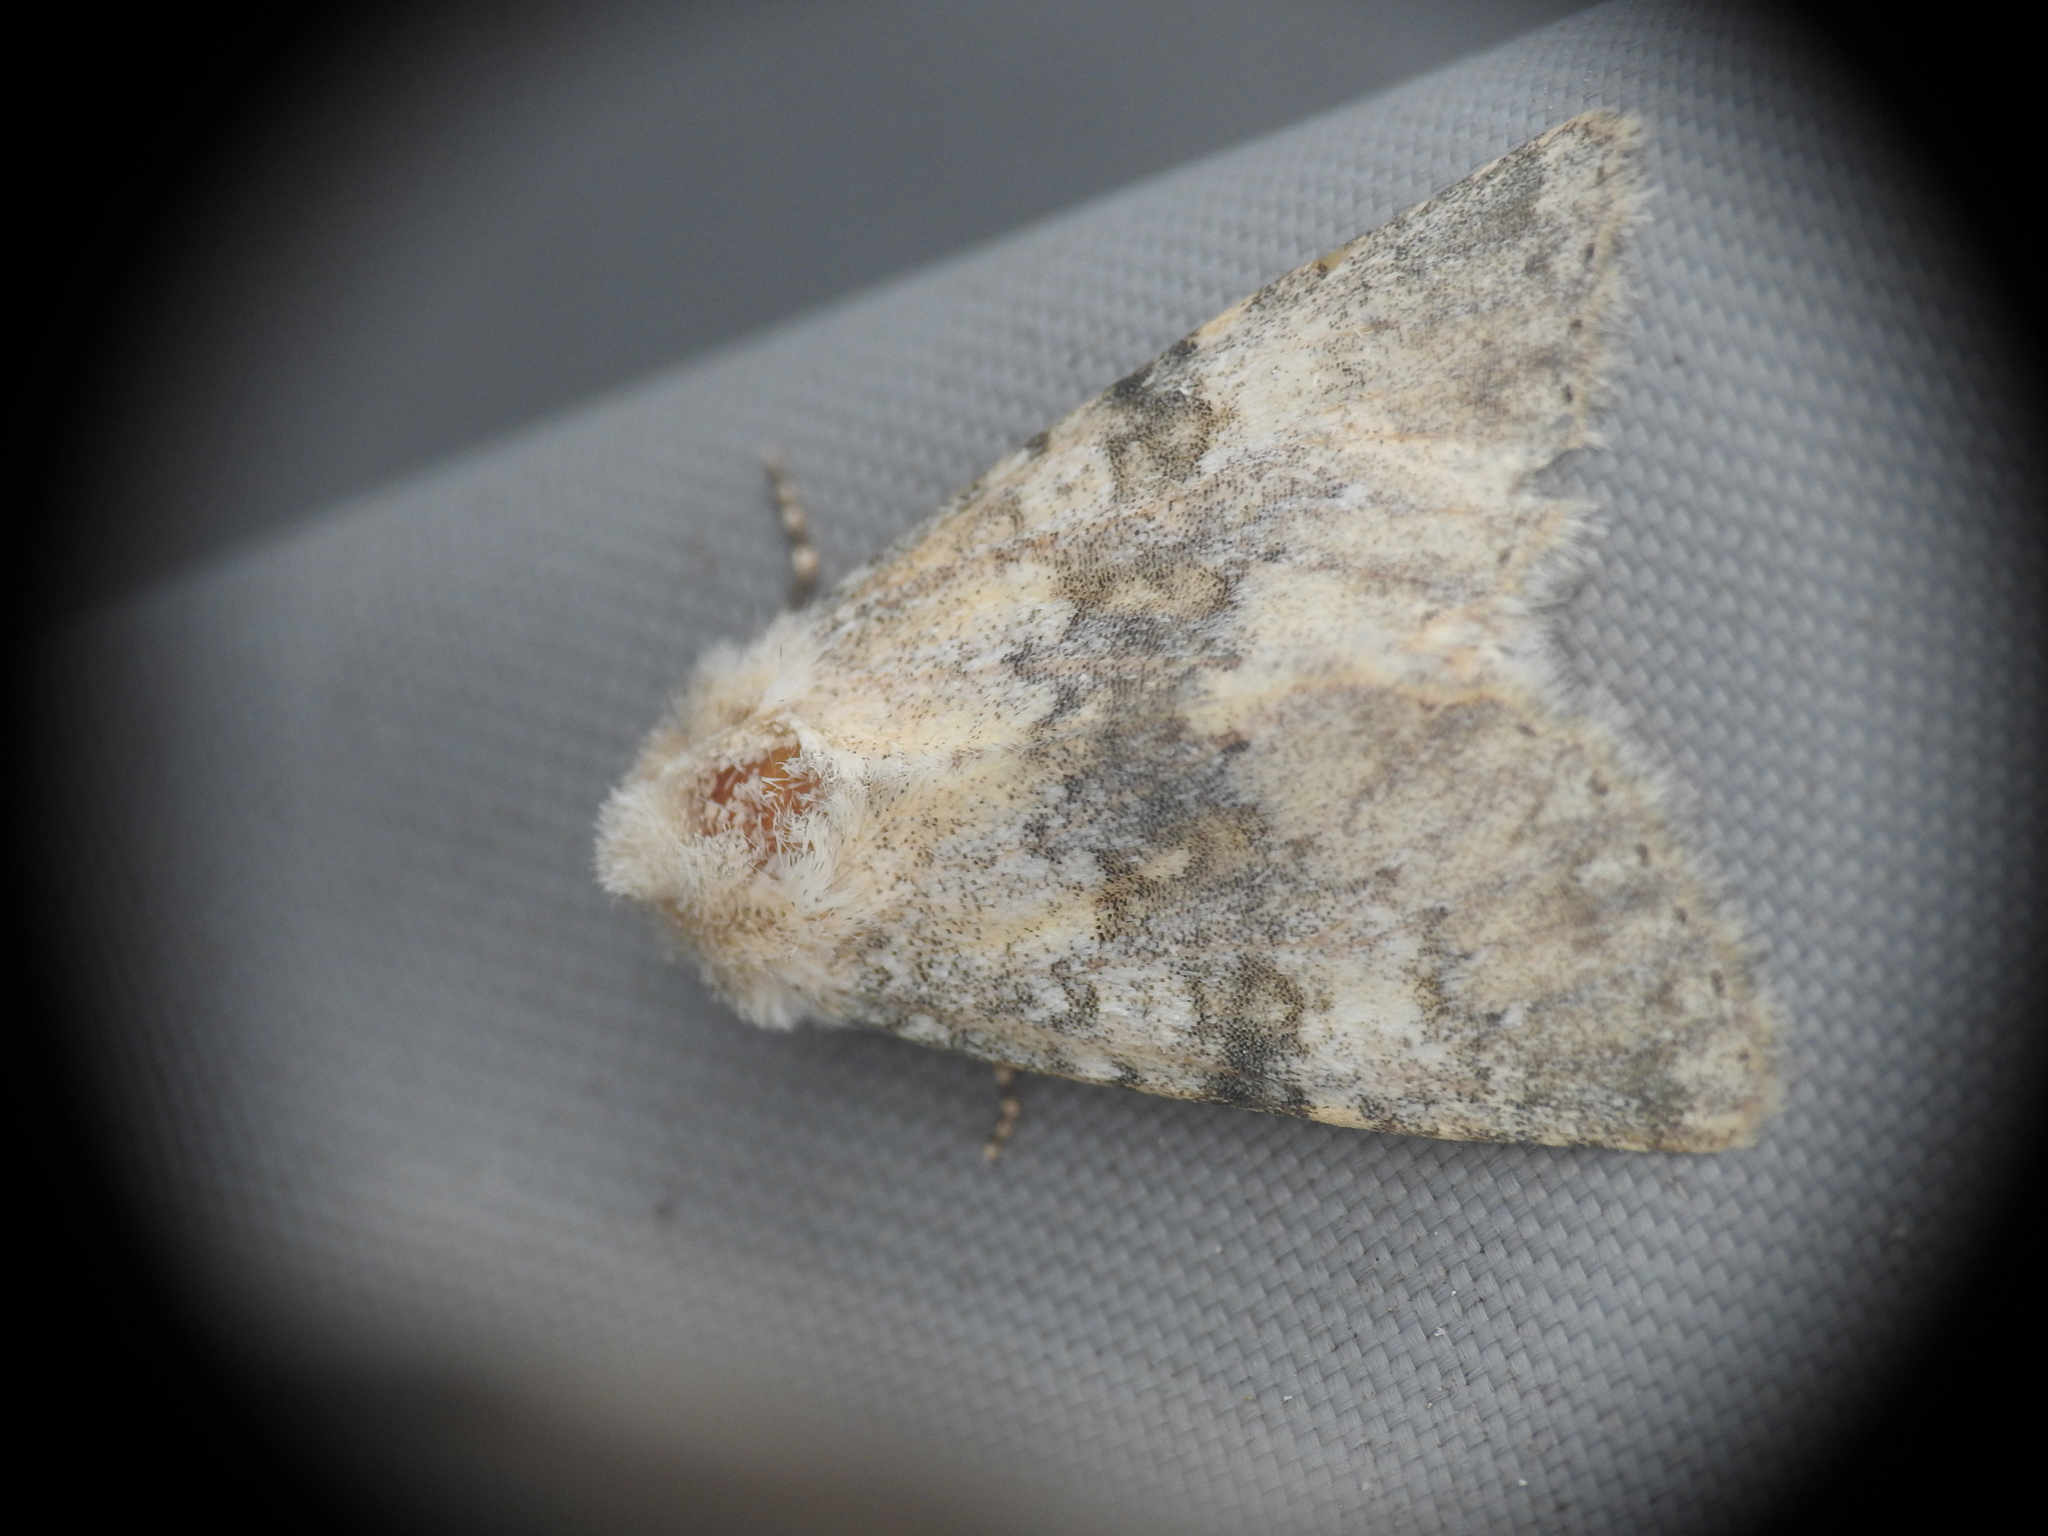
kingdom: Animalia
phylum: Arthropoda
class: Insecta
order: Lepidoptera
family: Noctuidae
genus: Polymixis
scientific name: Polymixis dubia
